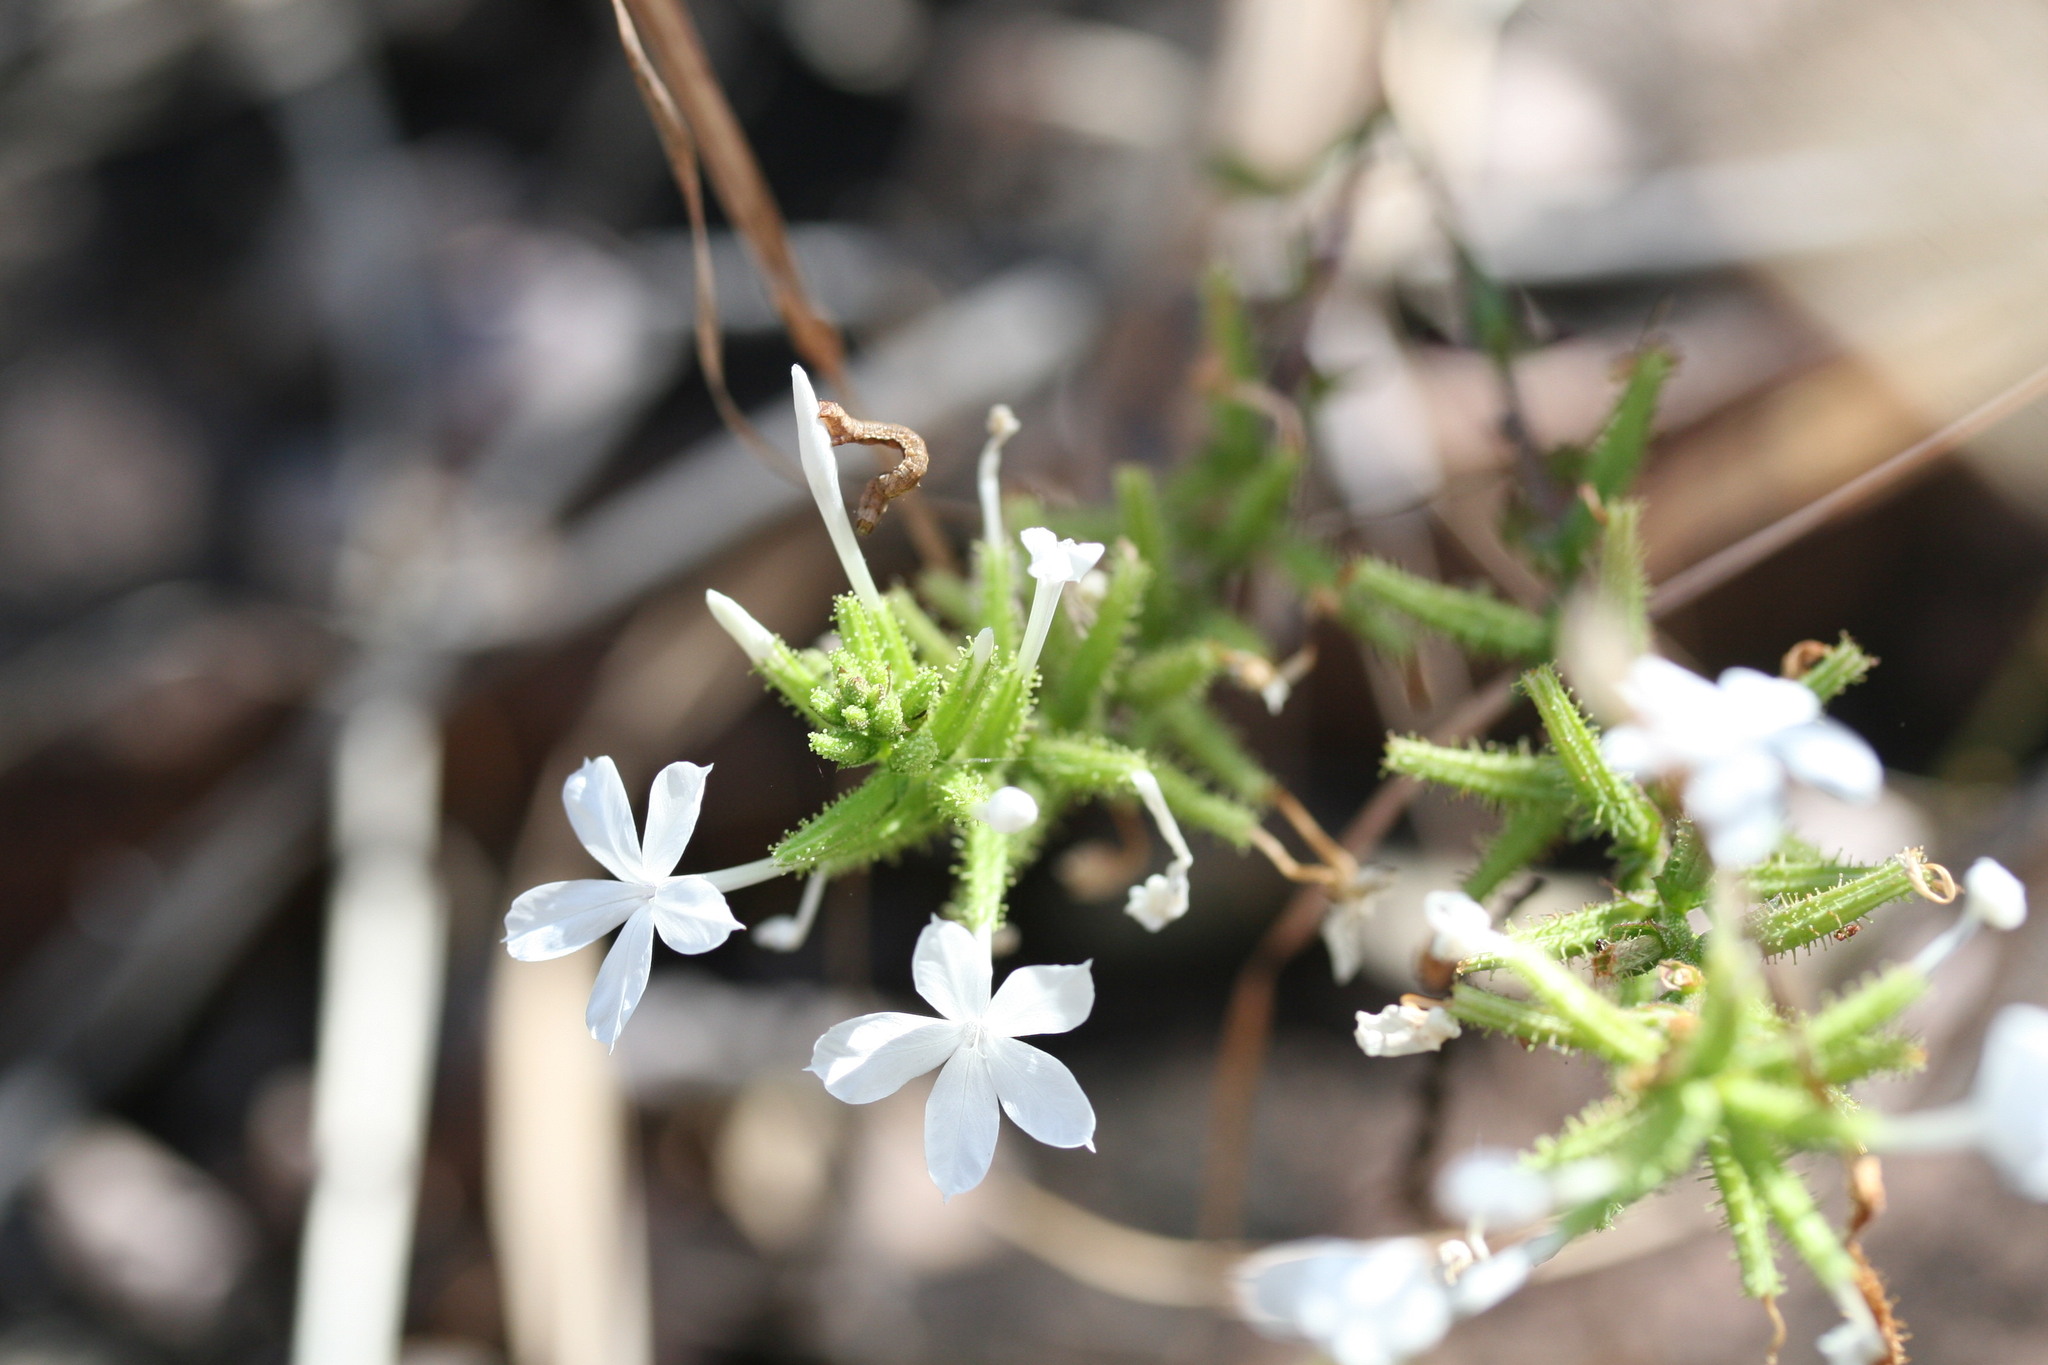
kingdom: Plantae
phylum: Tracheophyta
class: Magnoliopsida
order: Caryophyllales
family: Plumbaginaceae
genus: Plumbago
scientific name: Plumbago zeylanica
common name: Doctorbush
